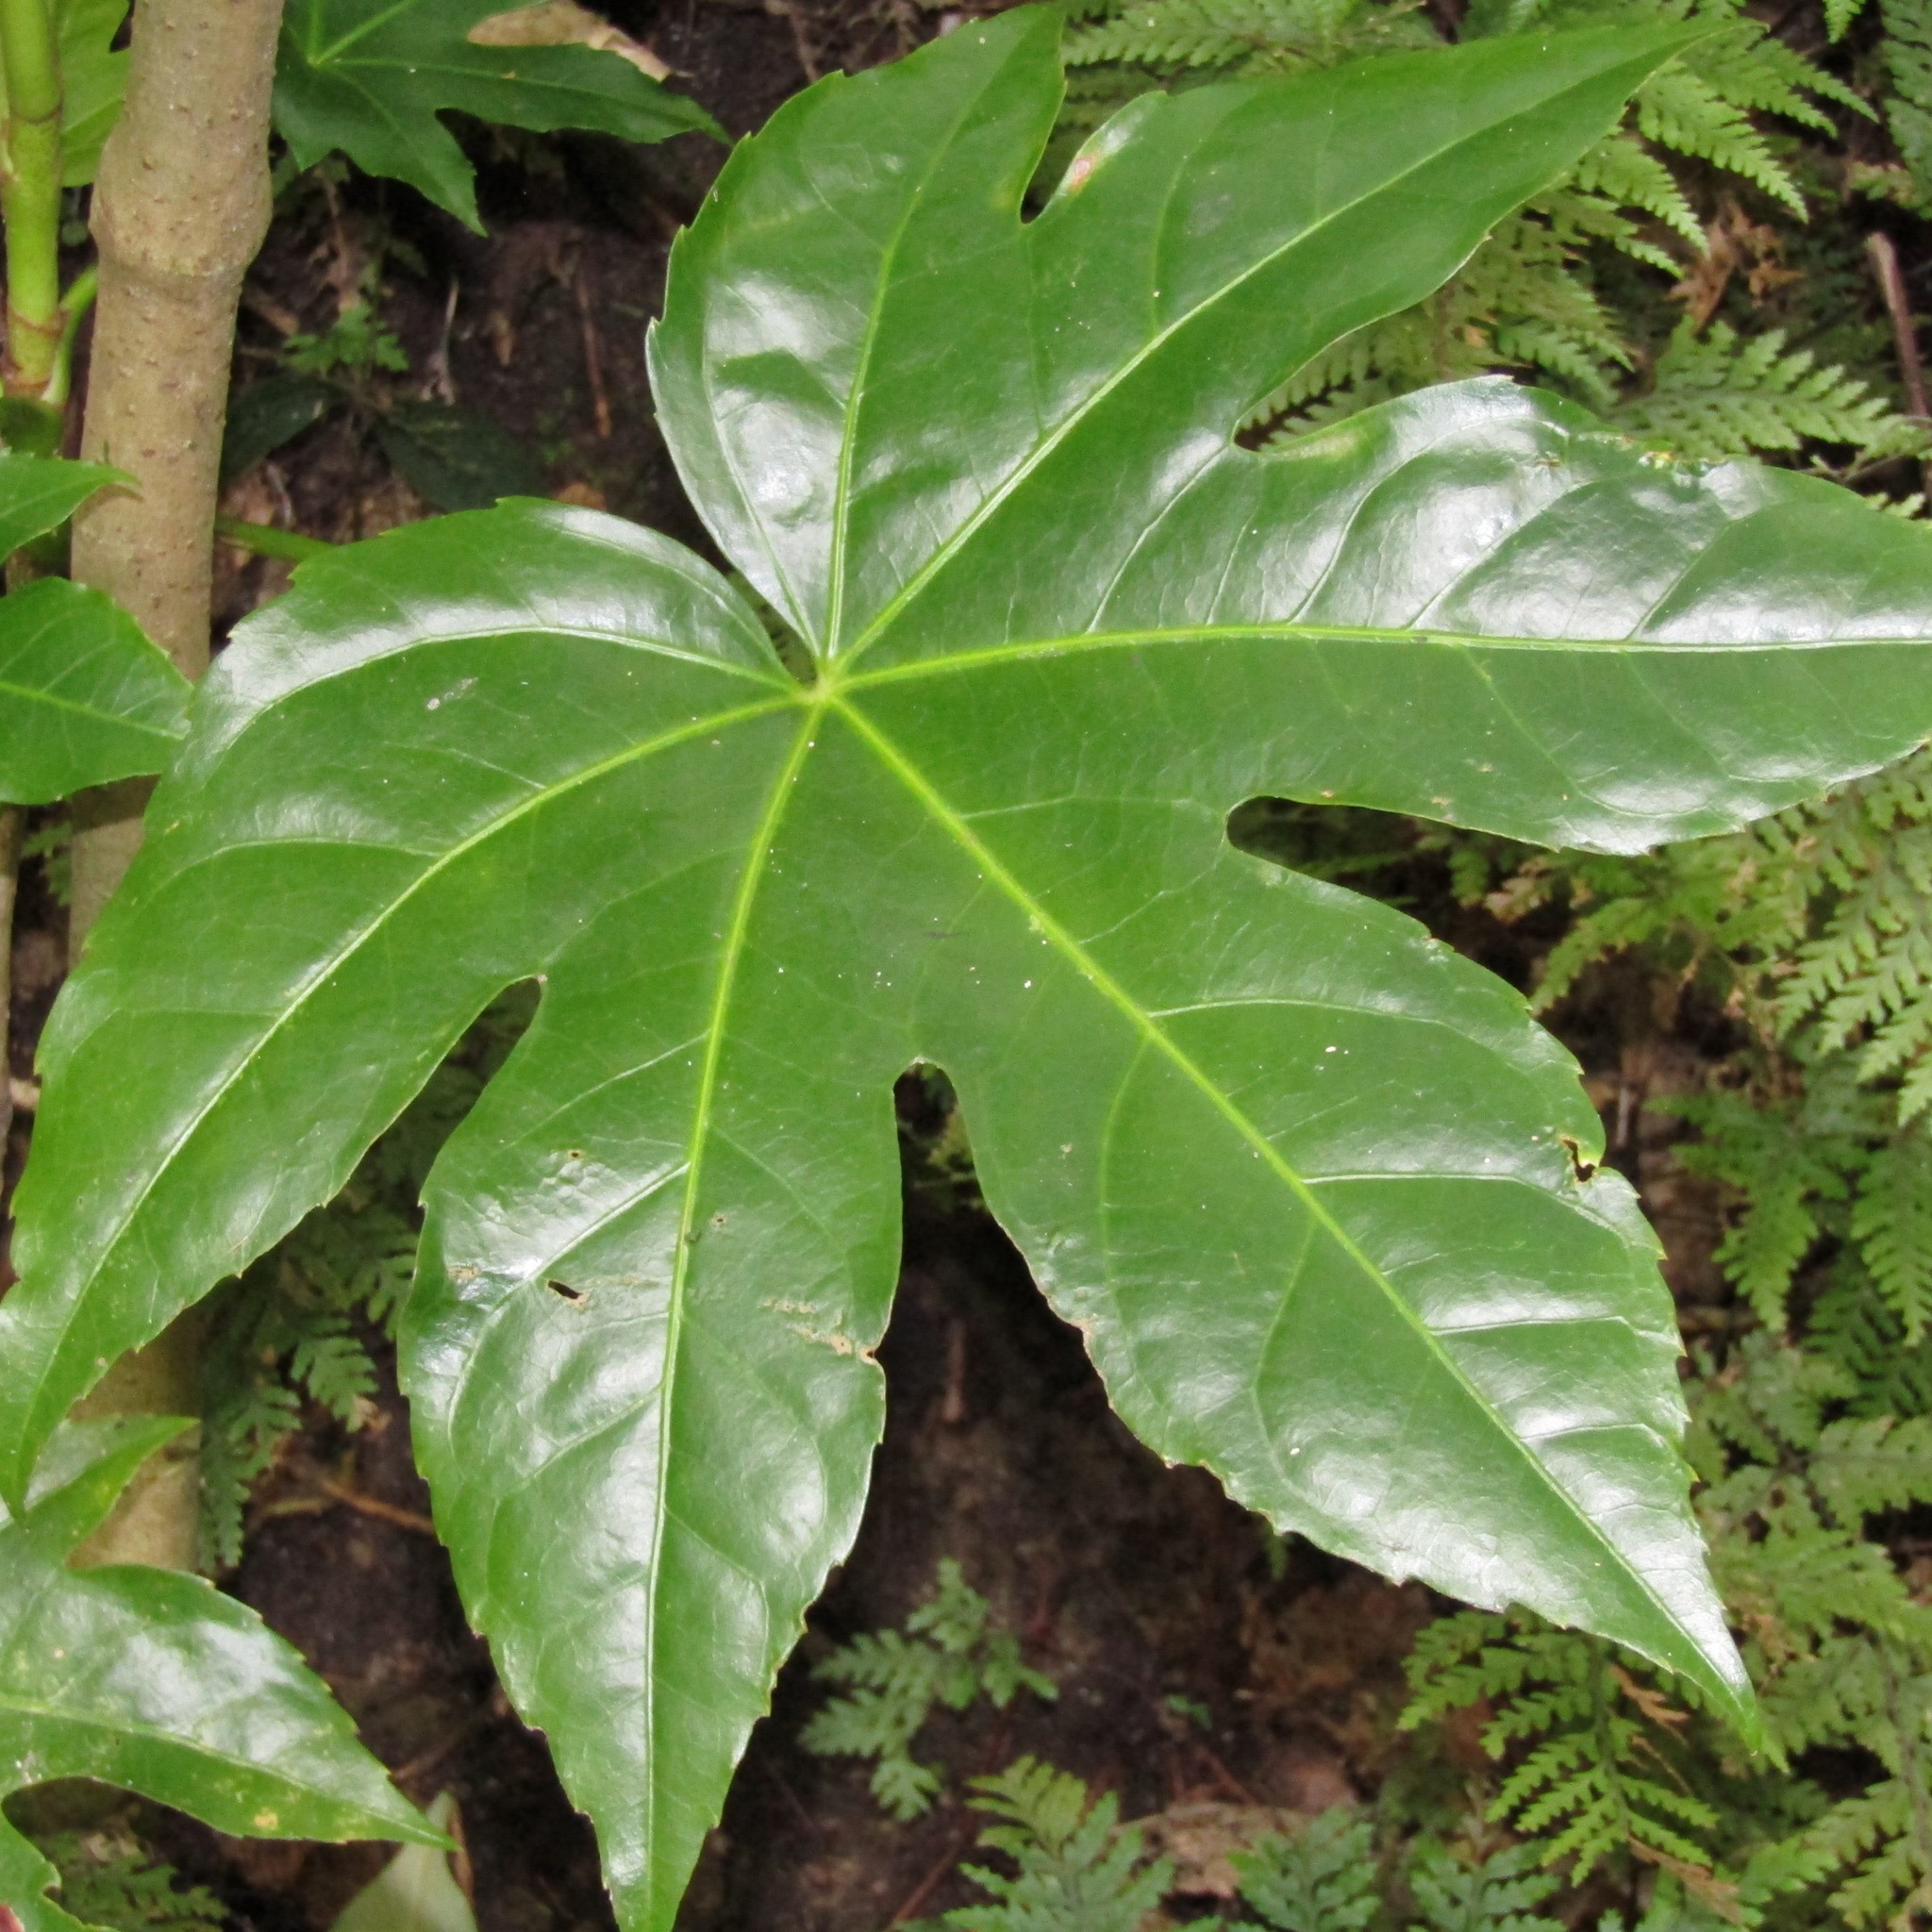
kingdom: Plantae
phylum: Tracheophyta
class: Magnoliopsida
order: Apiales
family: Araliaceae
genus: Fatsia
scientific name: Fatsia japonica
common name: Fatsia
